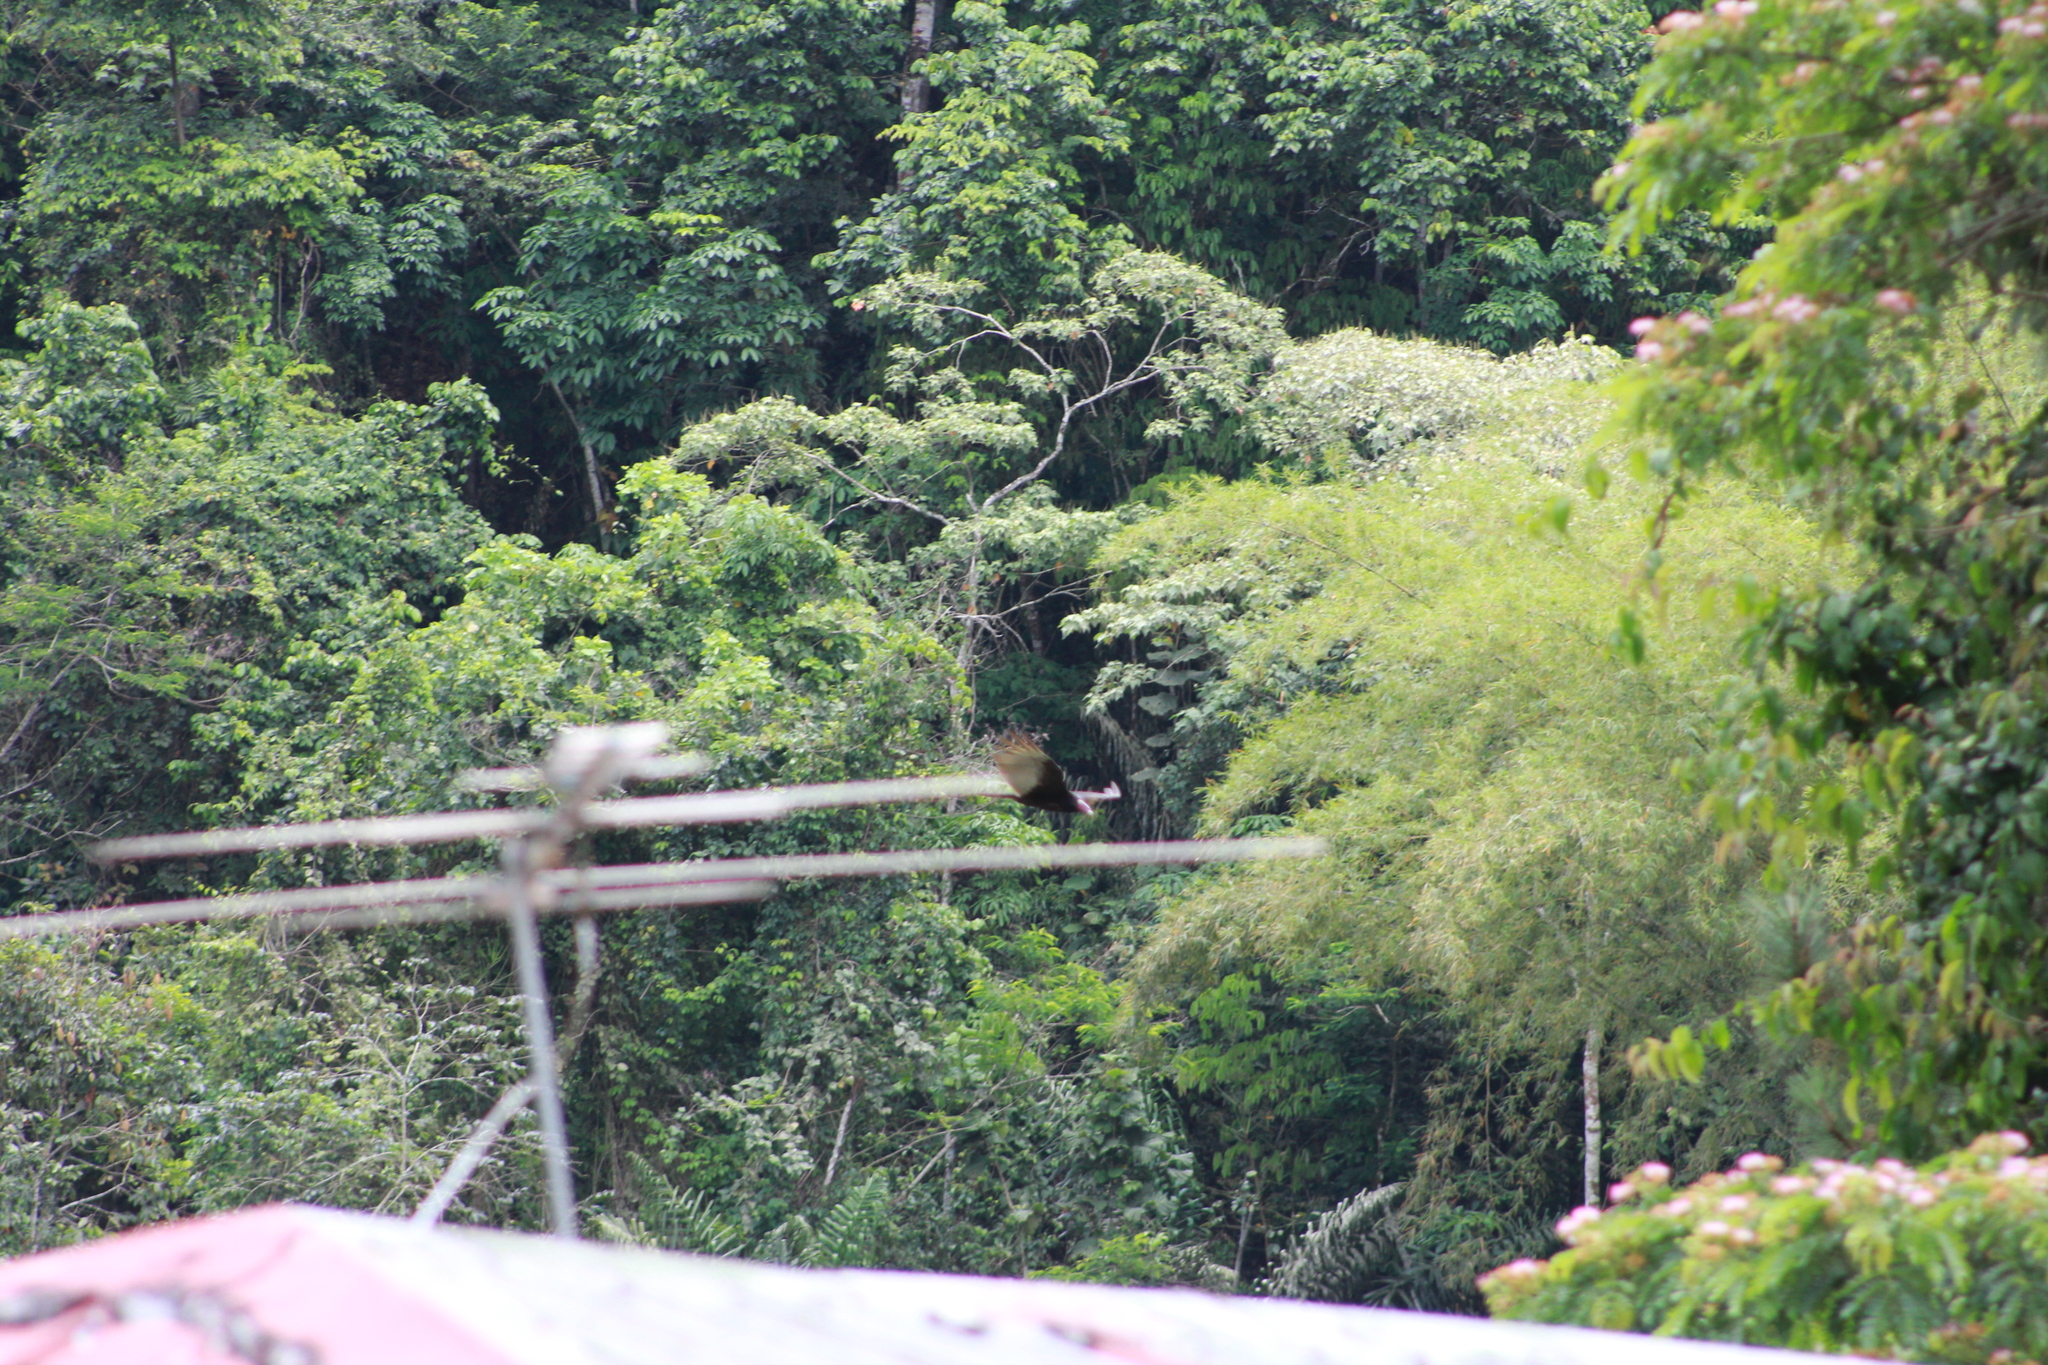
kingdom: Animalia
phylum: Chordata
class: Aves
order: Accipitriformes
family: Cathartidae
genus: Cathartes
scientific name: Cathartes aura
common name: Turkey vulture
